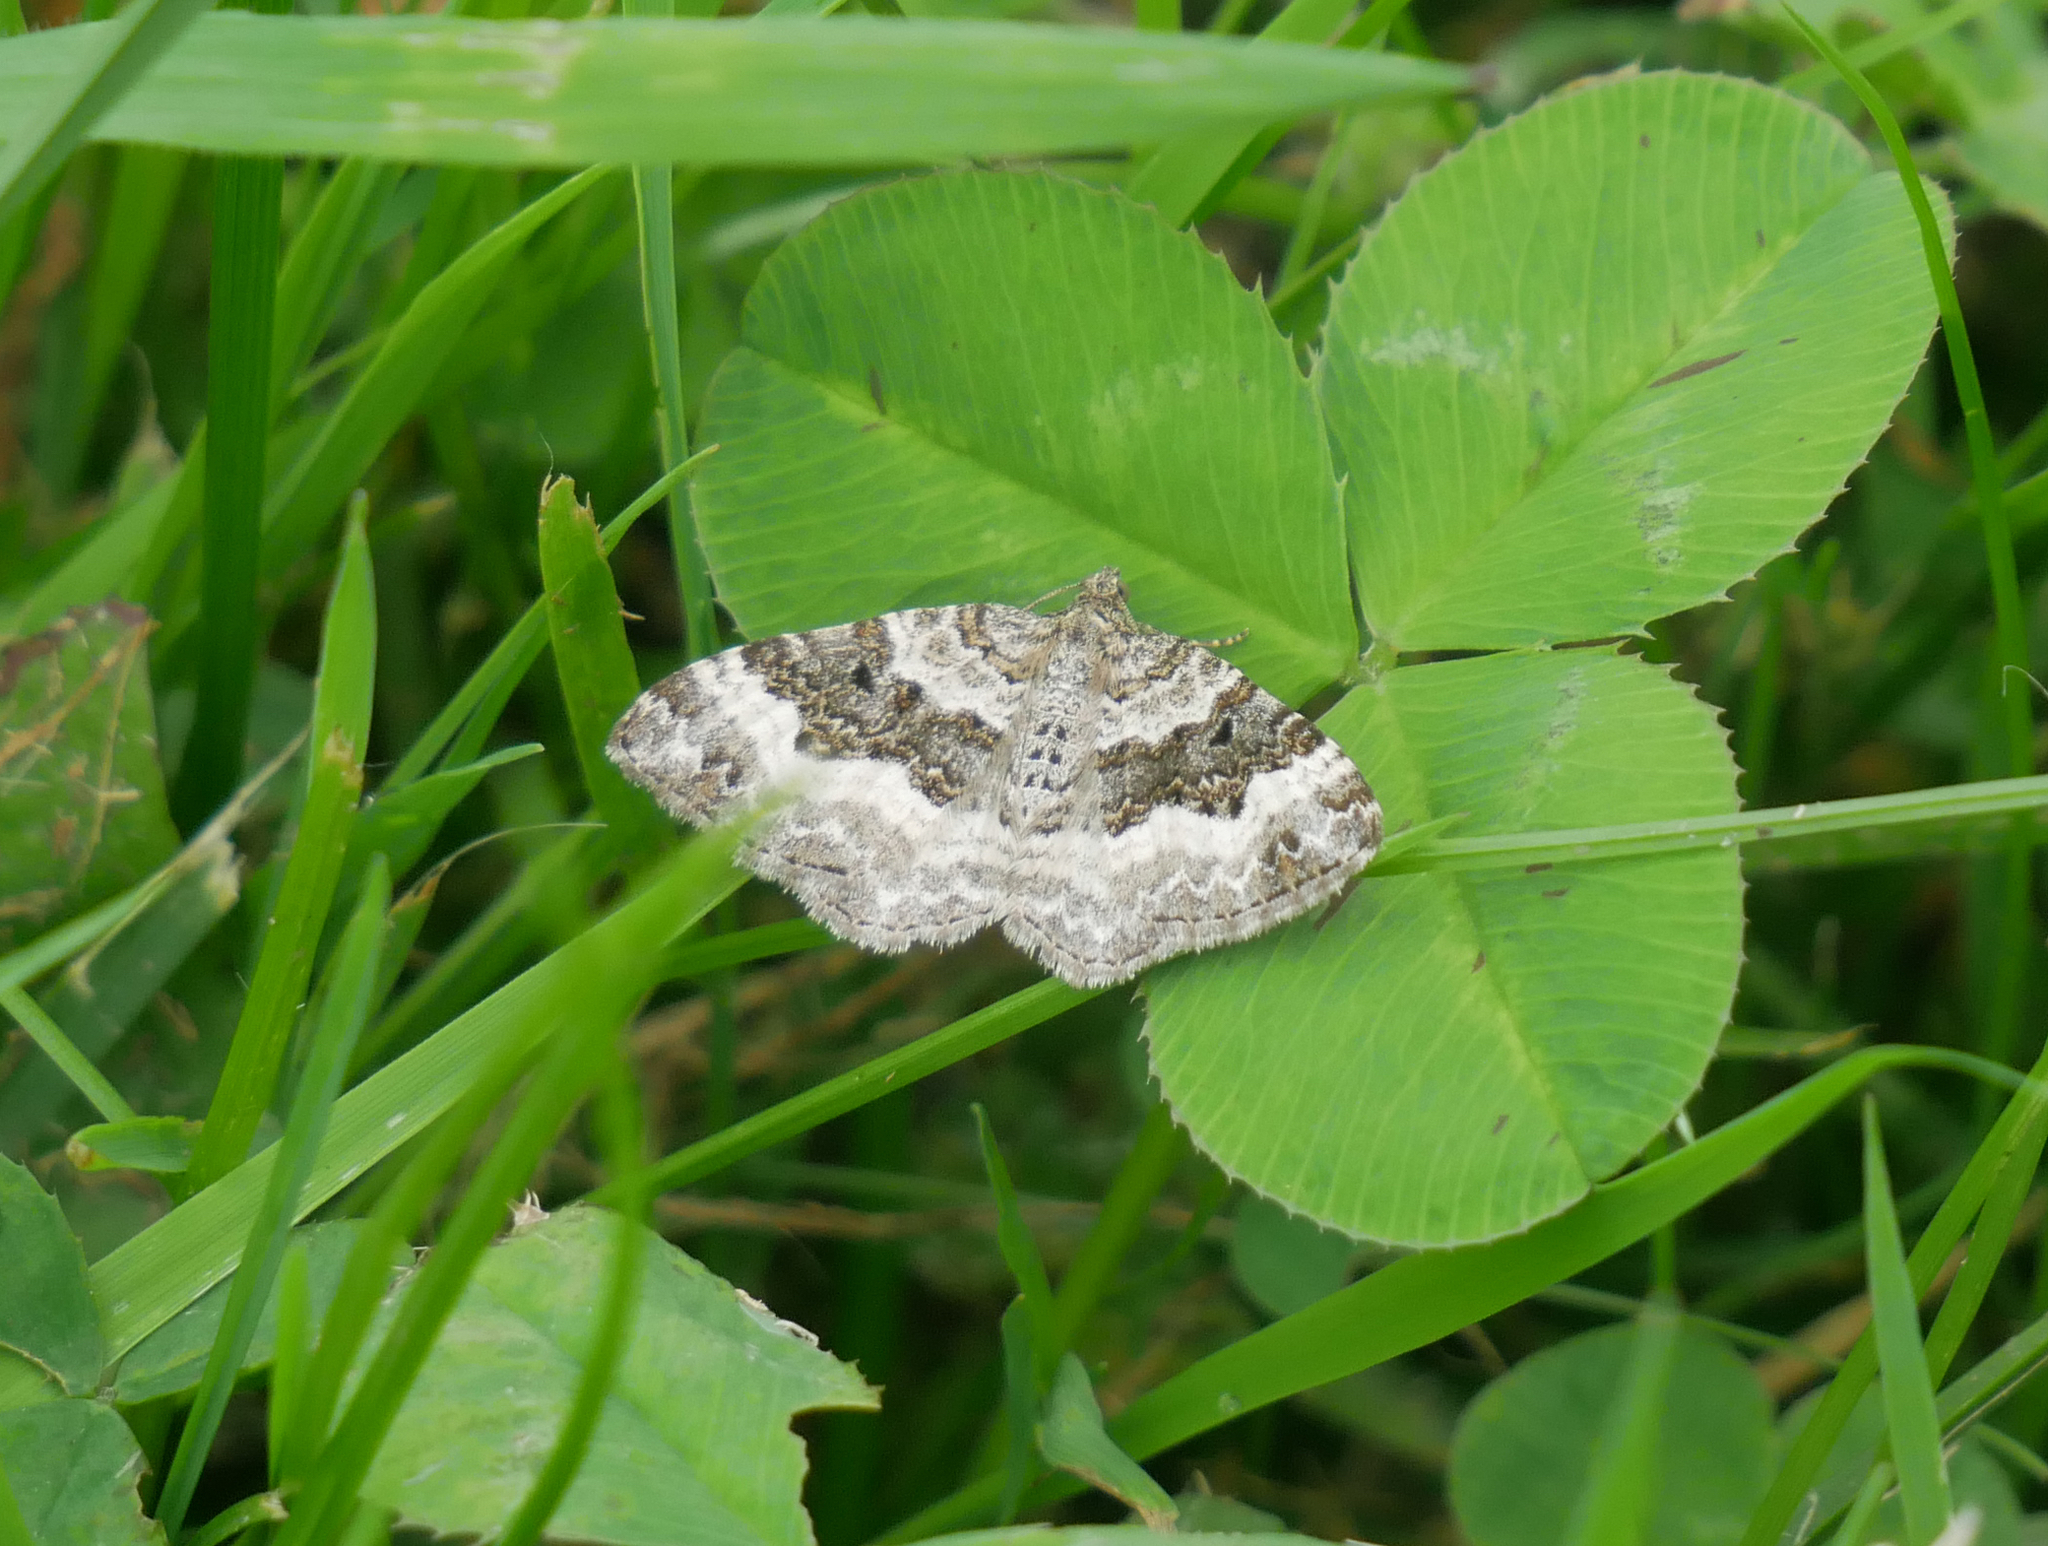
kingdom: Animalia
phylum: Arthropoda
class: Insecta
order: Lepidoptera
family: Geometridae
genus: Epirrhoe
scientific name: Epirrhoe alternata
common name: Common carpet
